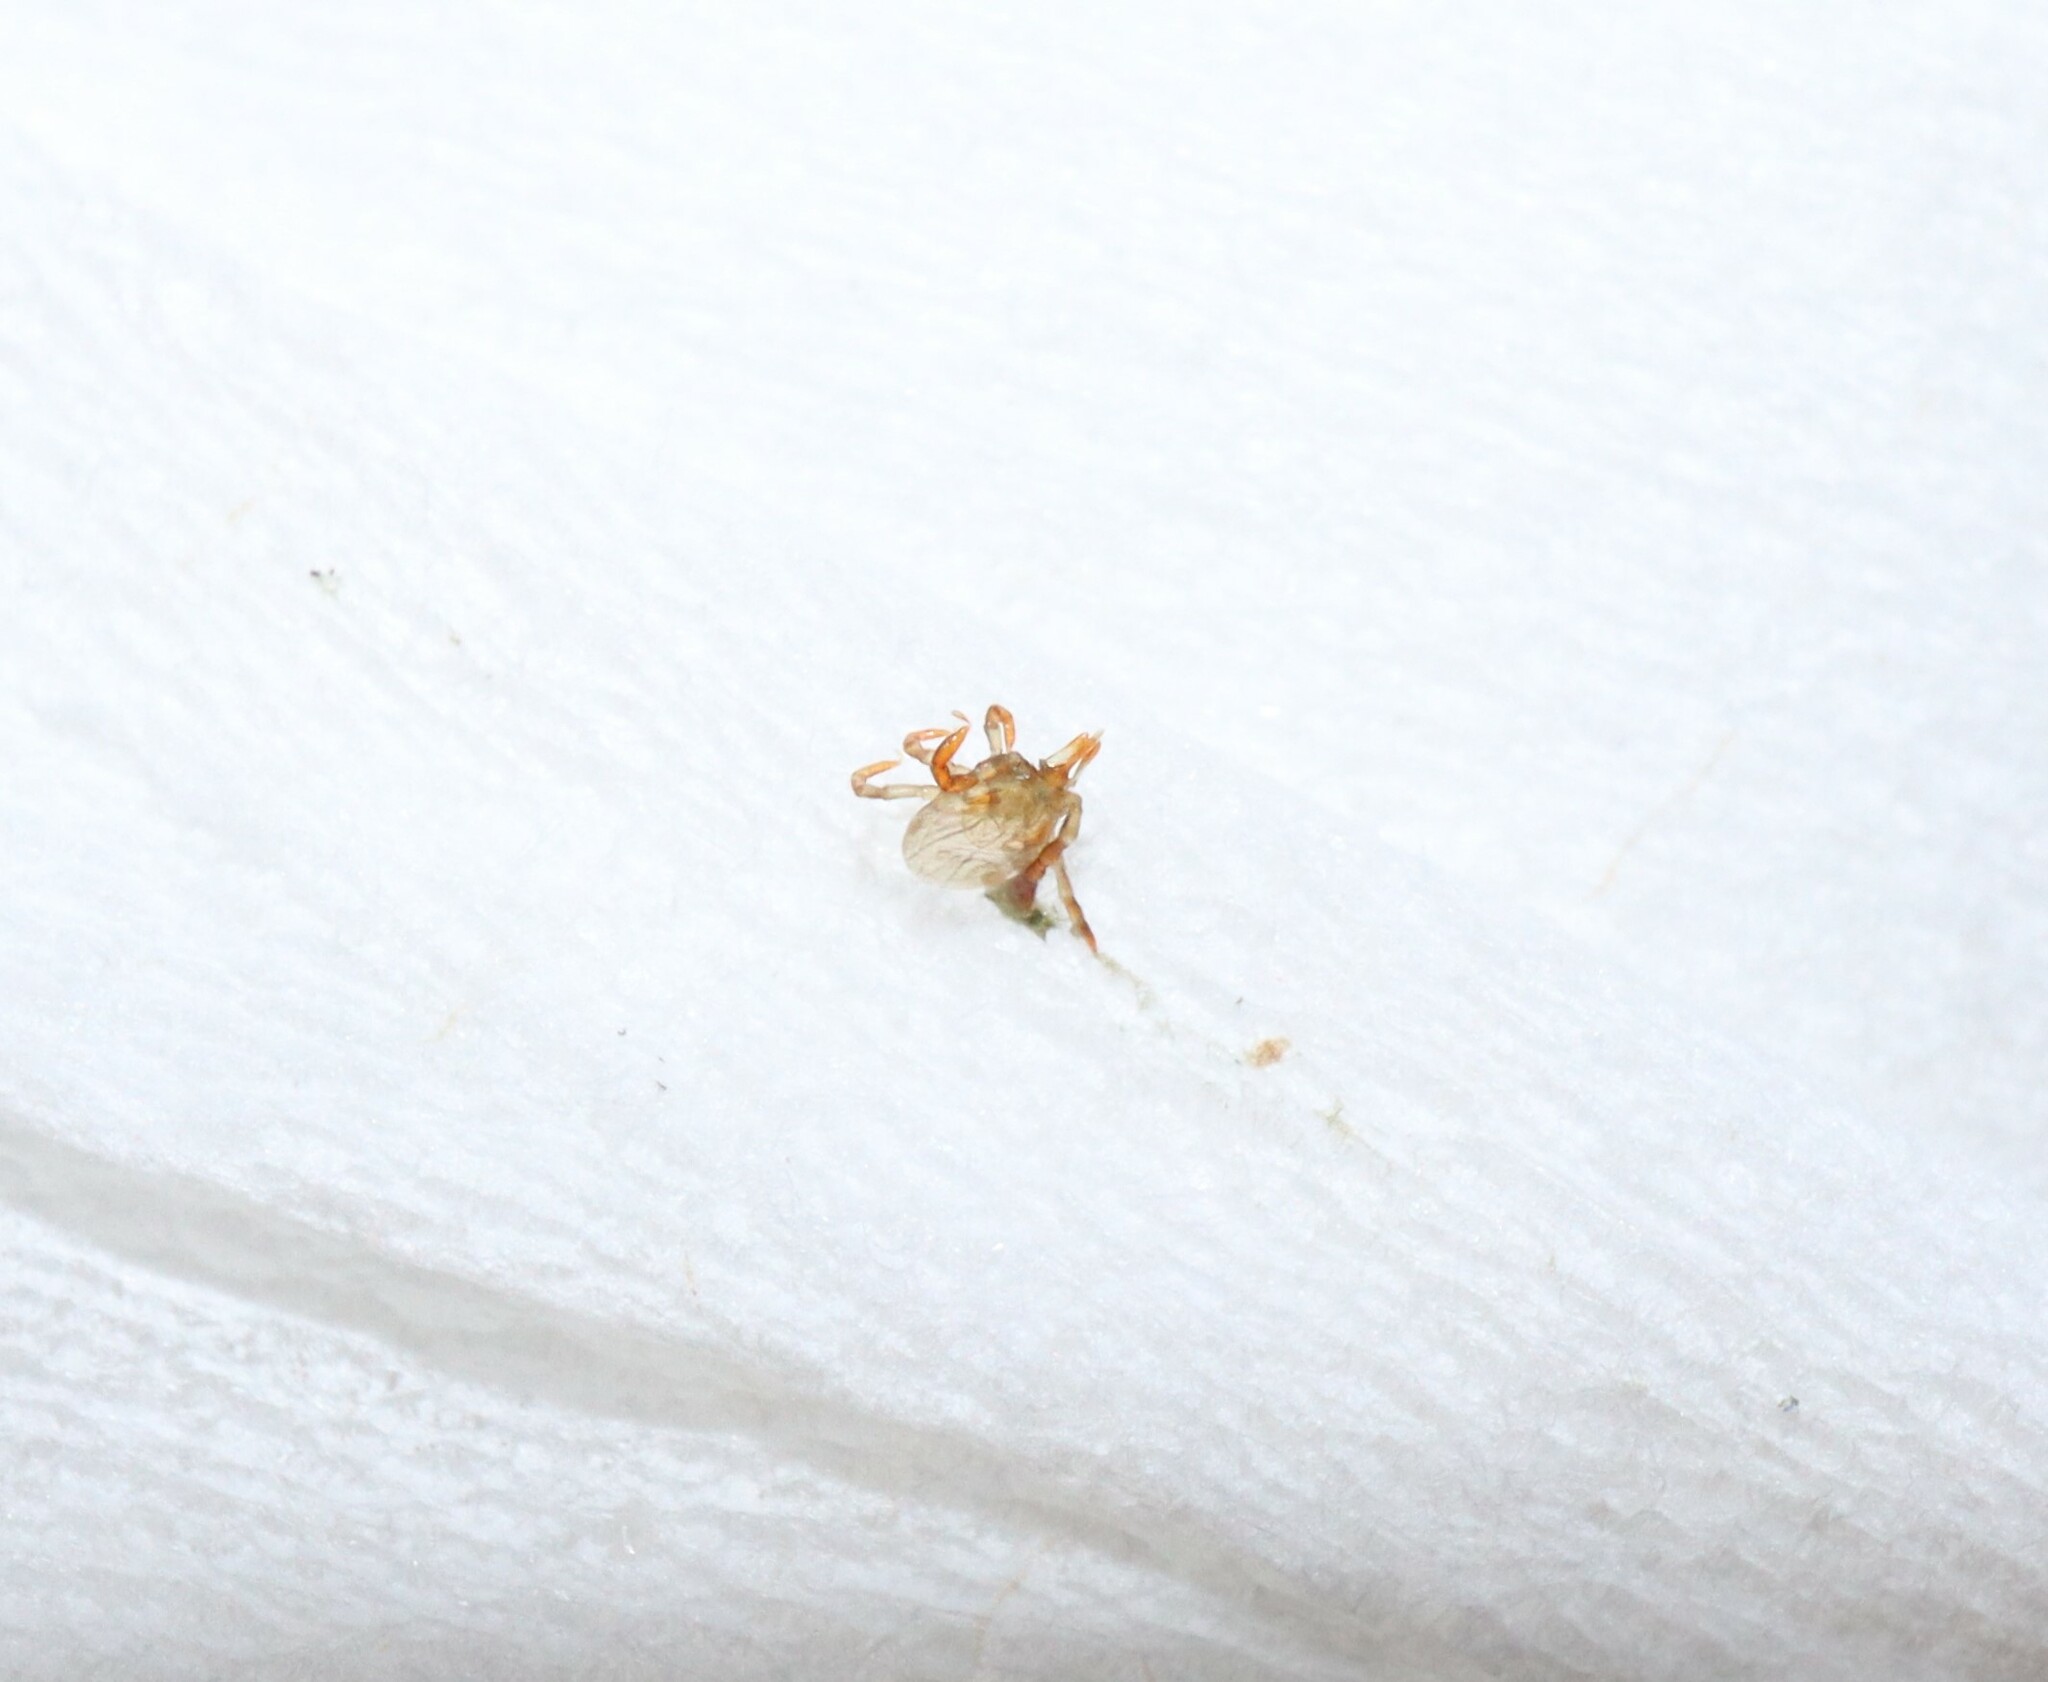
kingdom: Animalia
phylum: Arthropoda
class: Arachnida
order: Ixodida
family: Ixodidae
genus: Ixodes
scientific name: Ixodes holocyclus
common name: Australian paralysis tick
